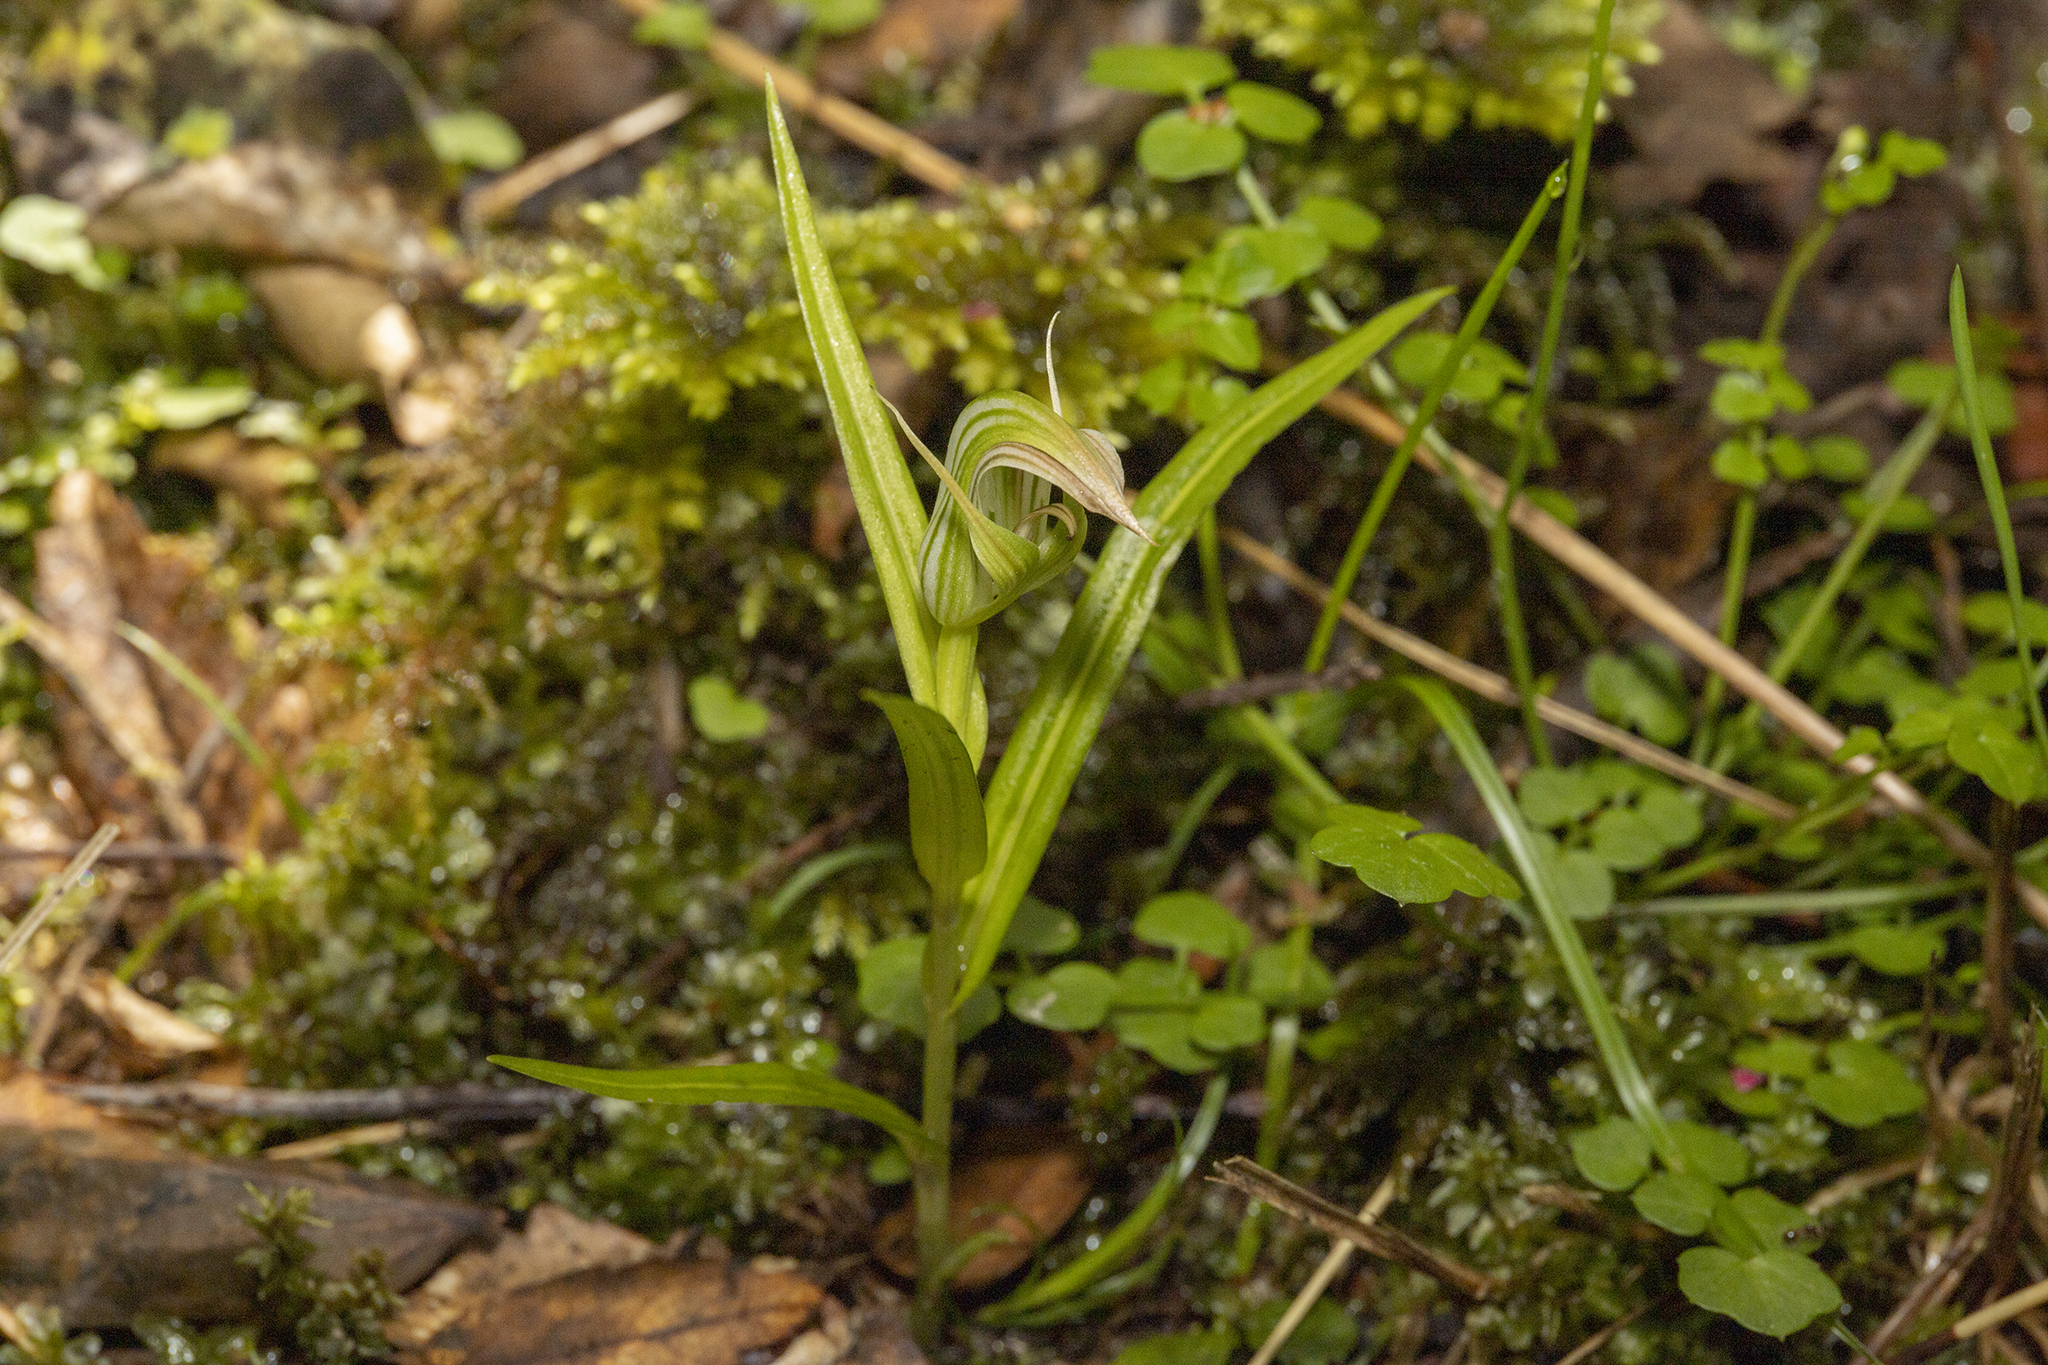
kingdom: Plantae
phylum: Tracheophyta
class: Liliopsida
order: Asparagales
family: Orchidaceae
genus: Pterostylis
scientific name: Pterostylis irsoniana
